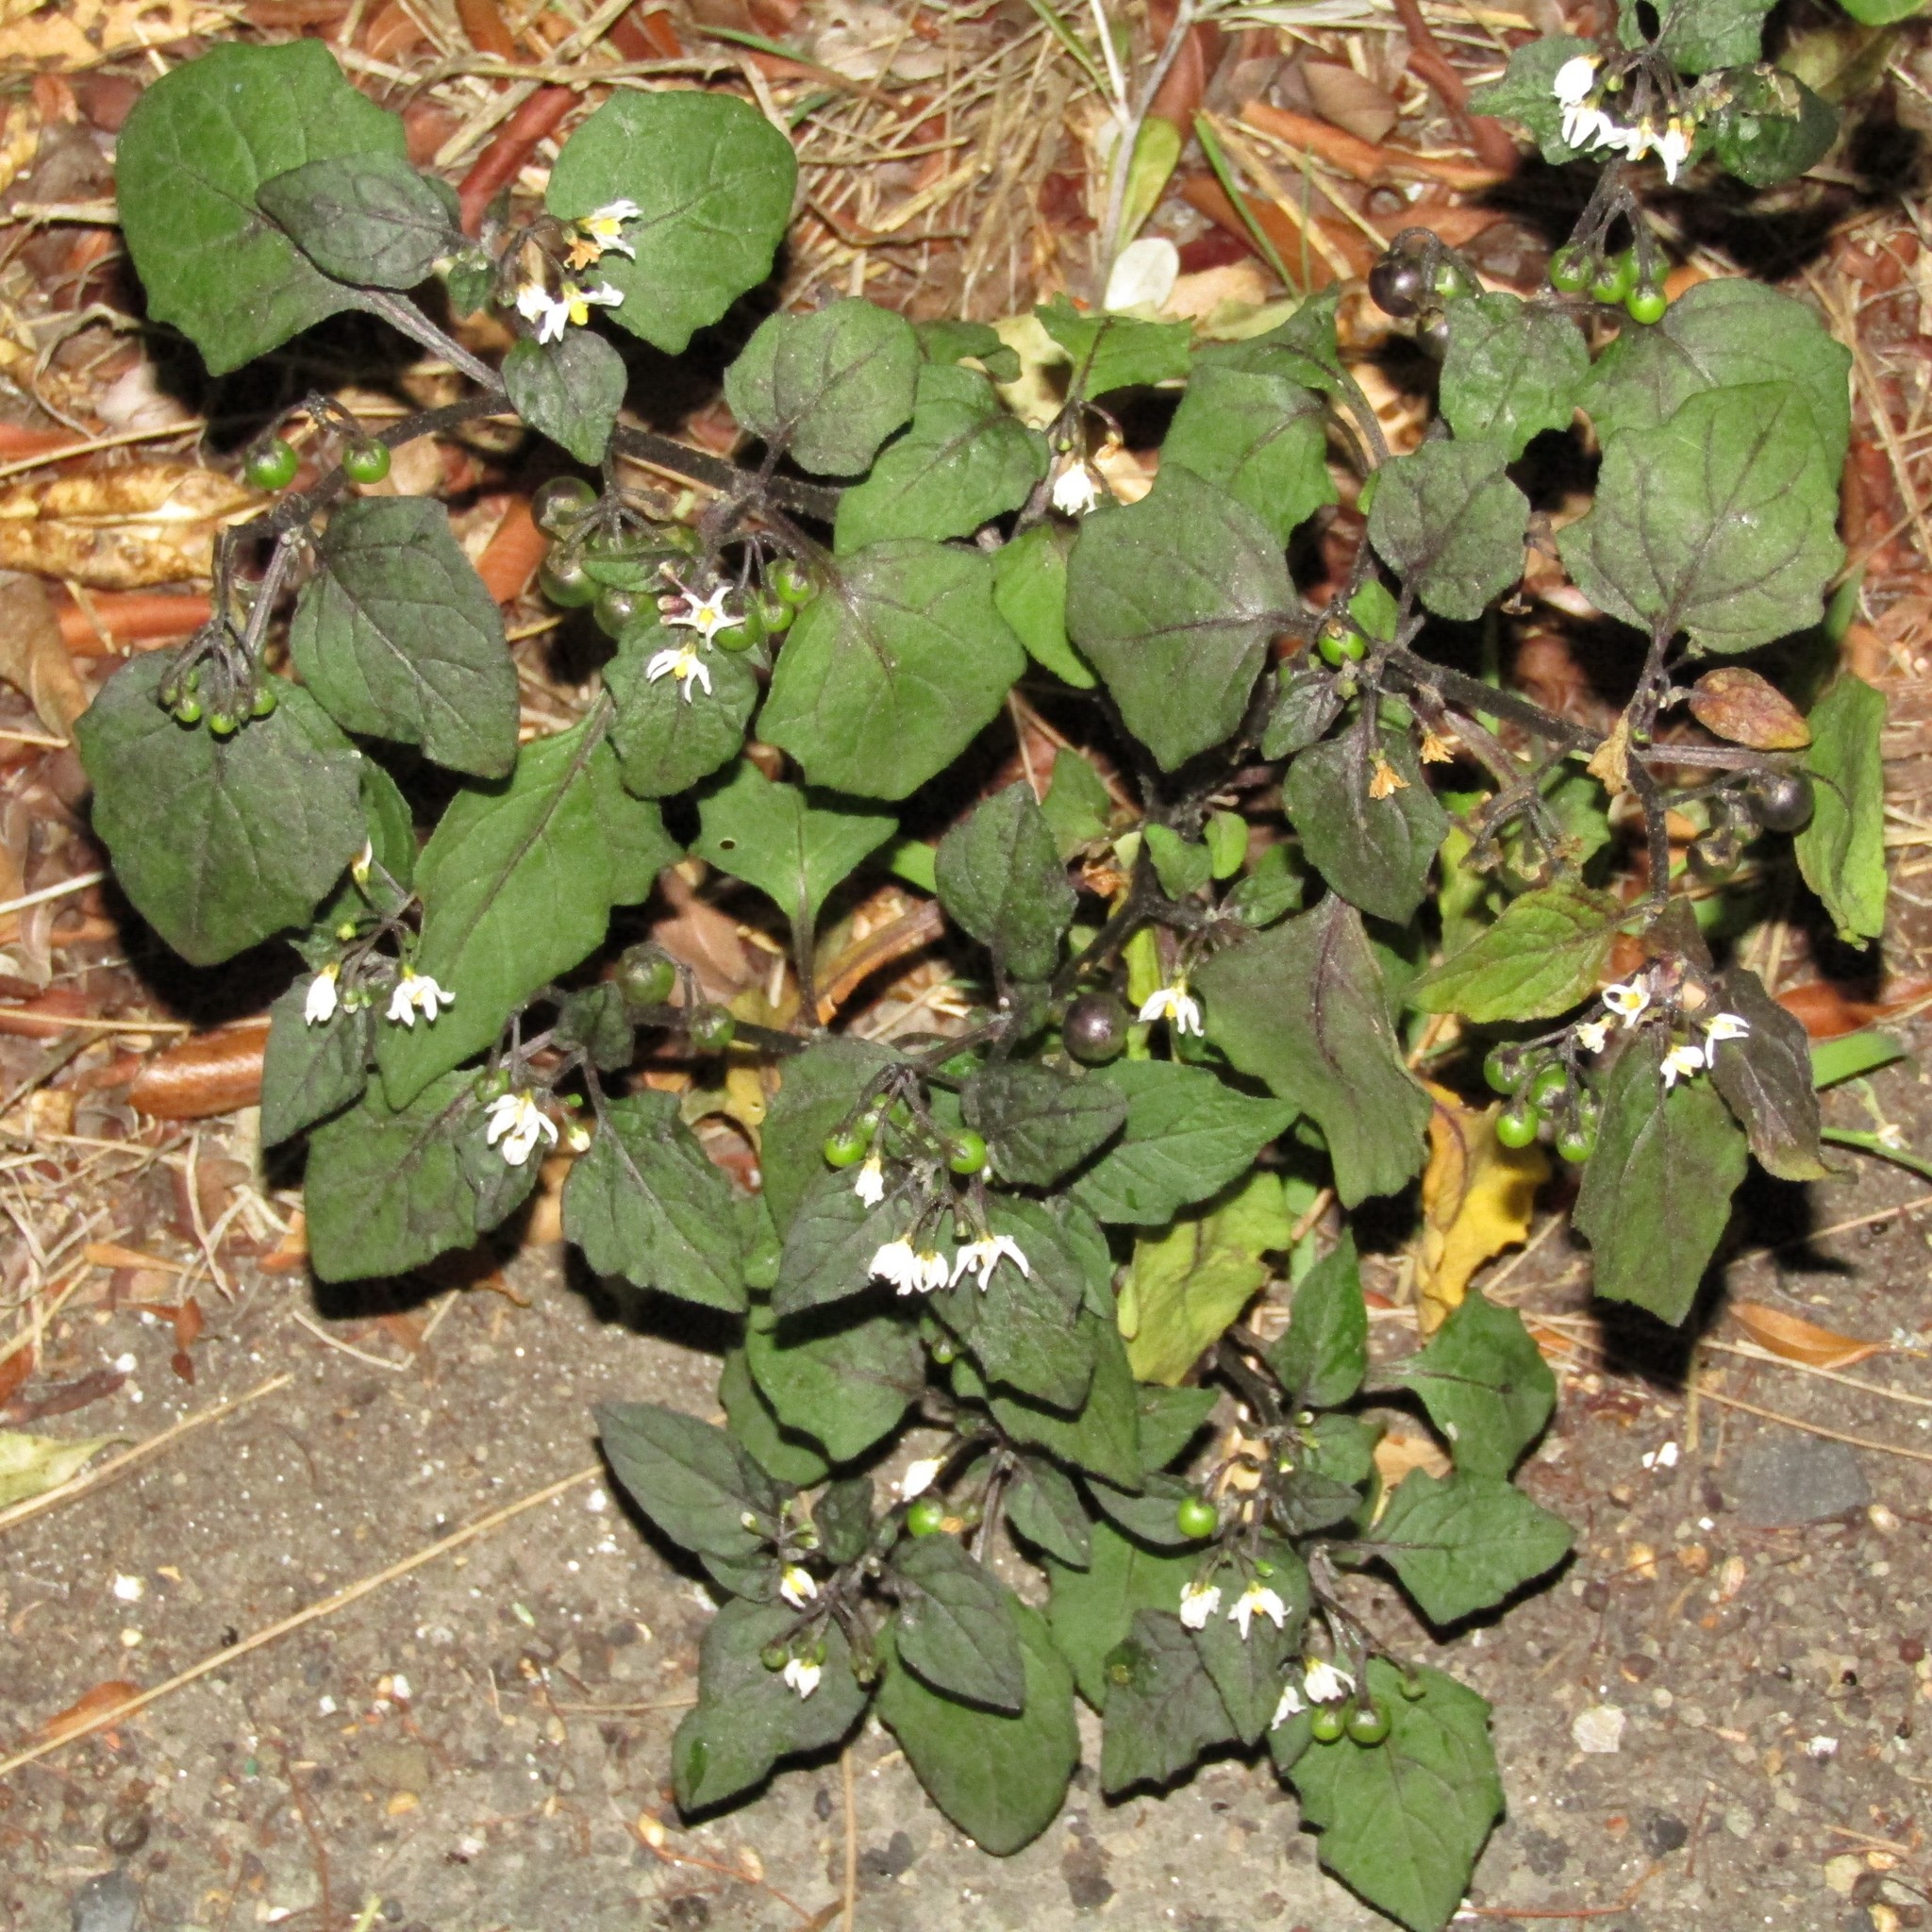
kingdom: Plantae
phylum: Tracheophyta
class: Magnoliopsida
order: Solanales
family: Solanaceae
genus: Solanum
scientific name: Solanum nigrum
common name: Black nightshade
